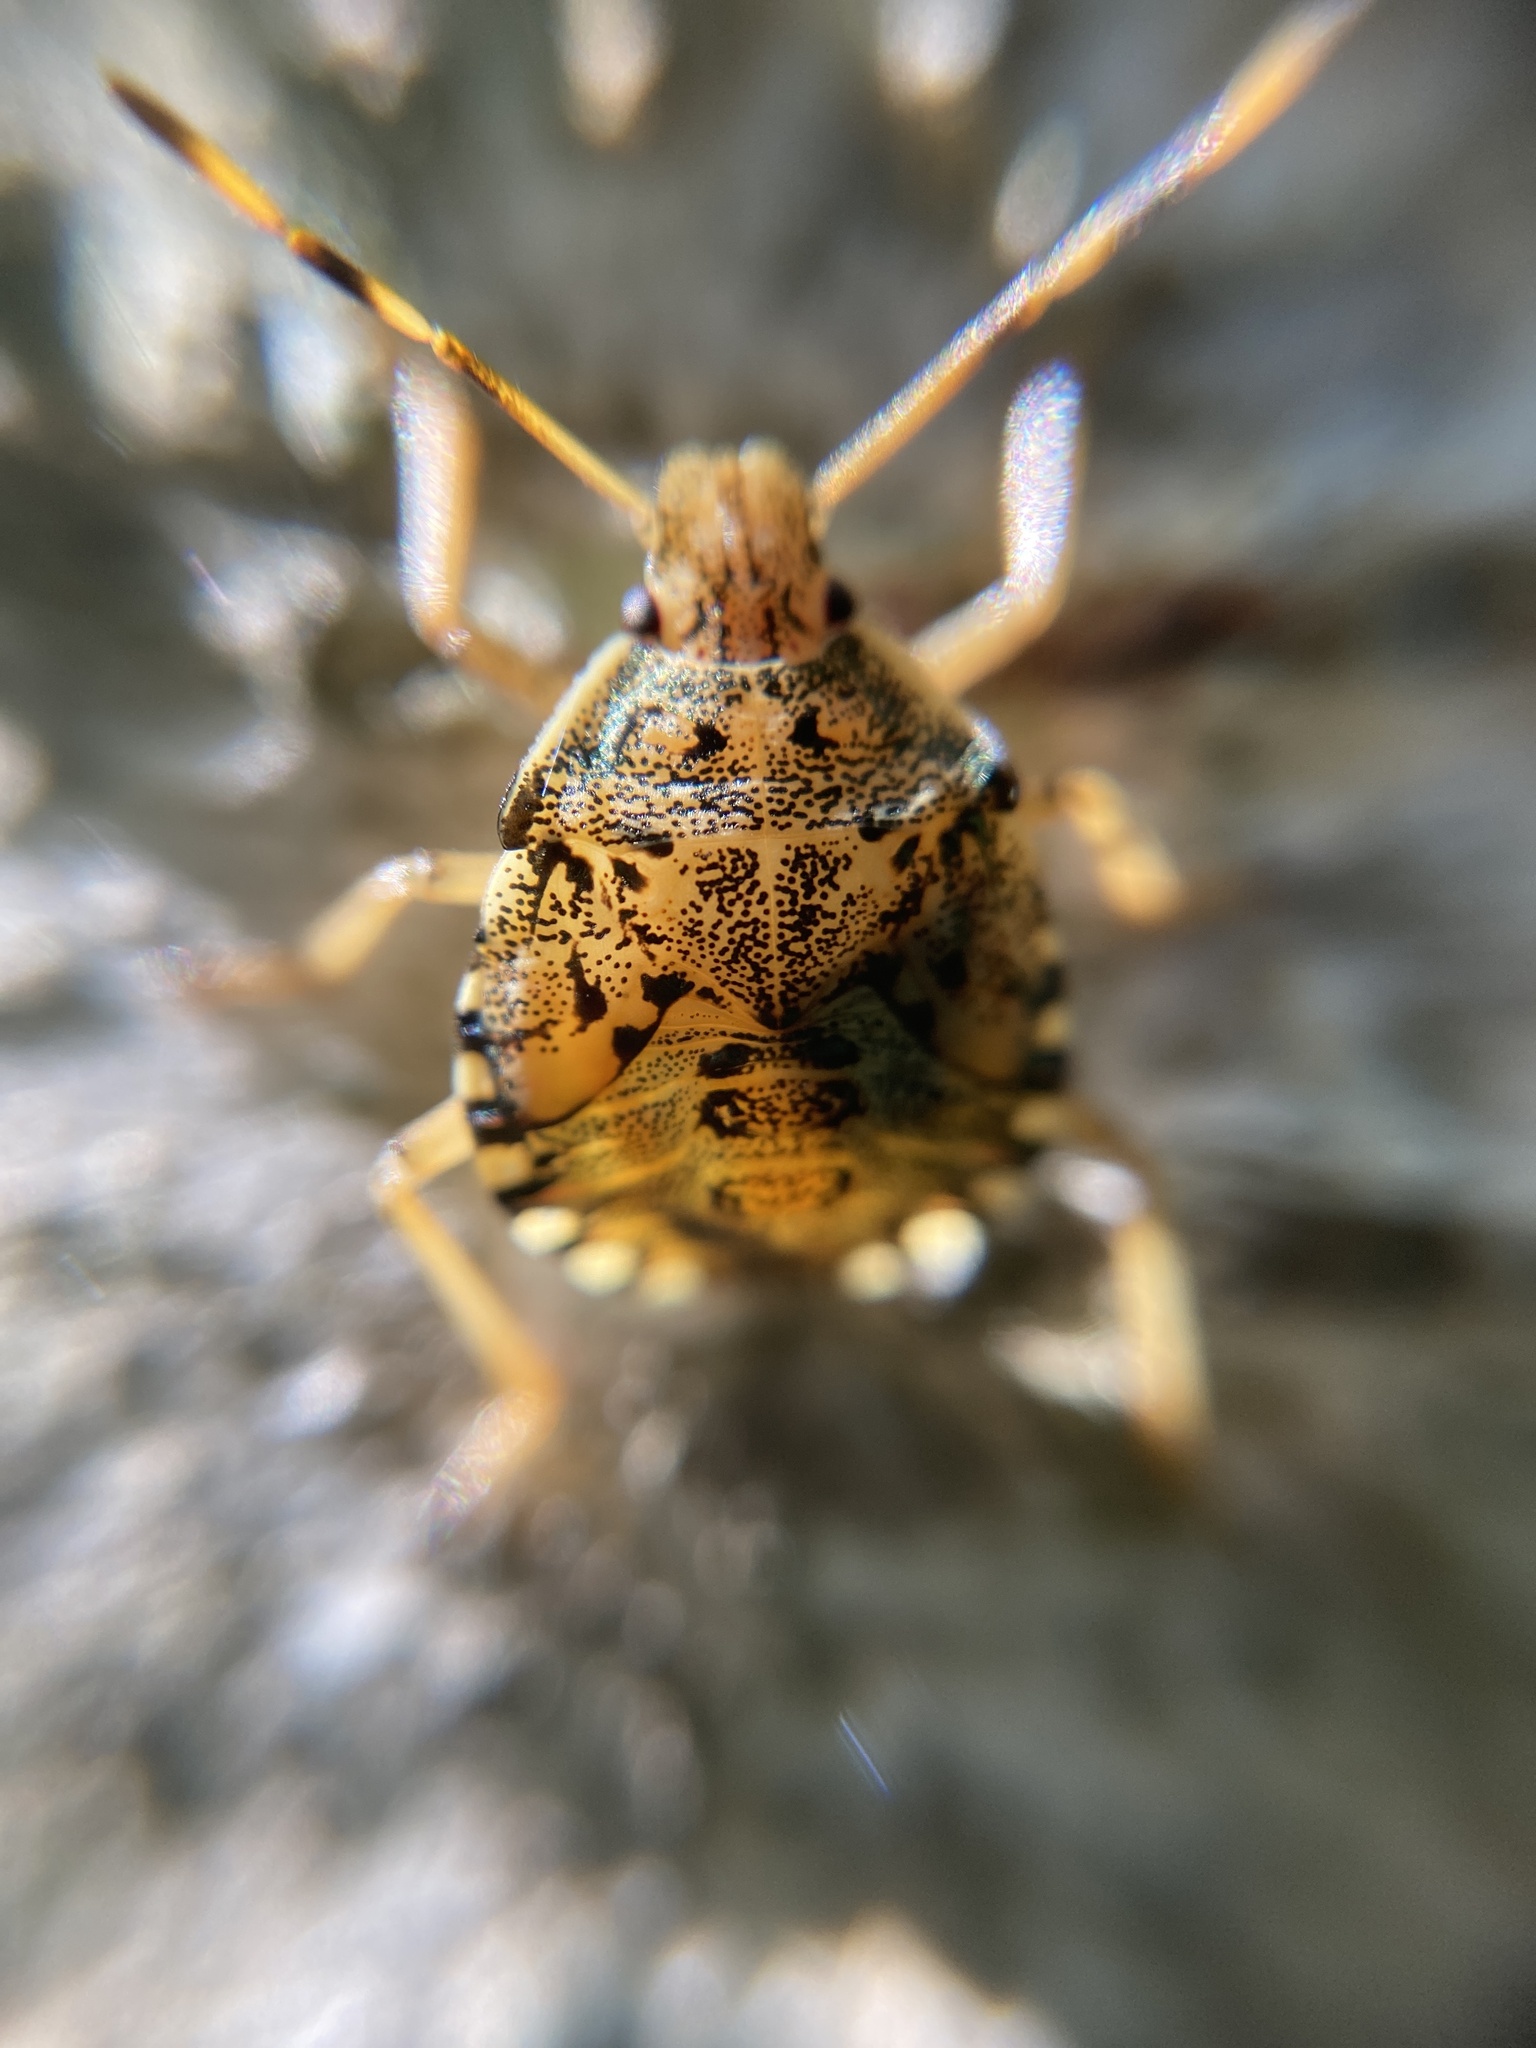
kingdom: Animalia
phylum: Arthropoda
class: Insecta
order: Hemiptera
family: Pentatomidae
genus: Arma
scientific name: Arma custos
